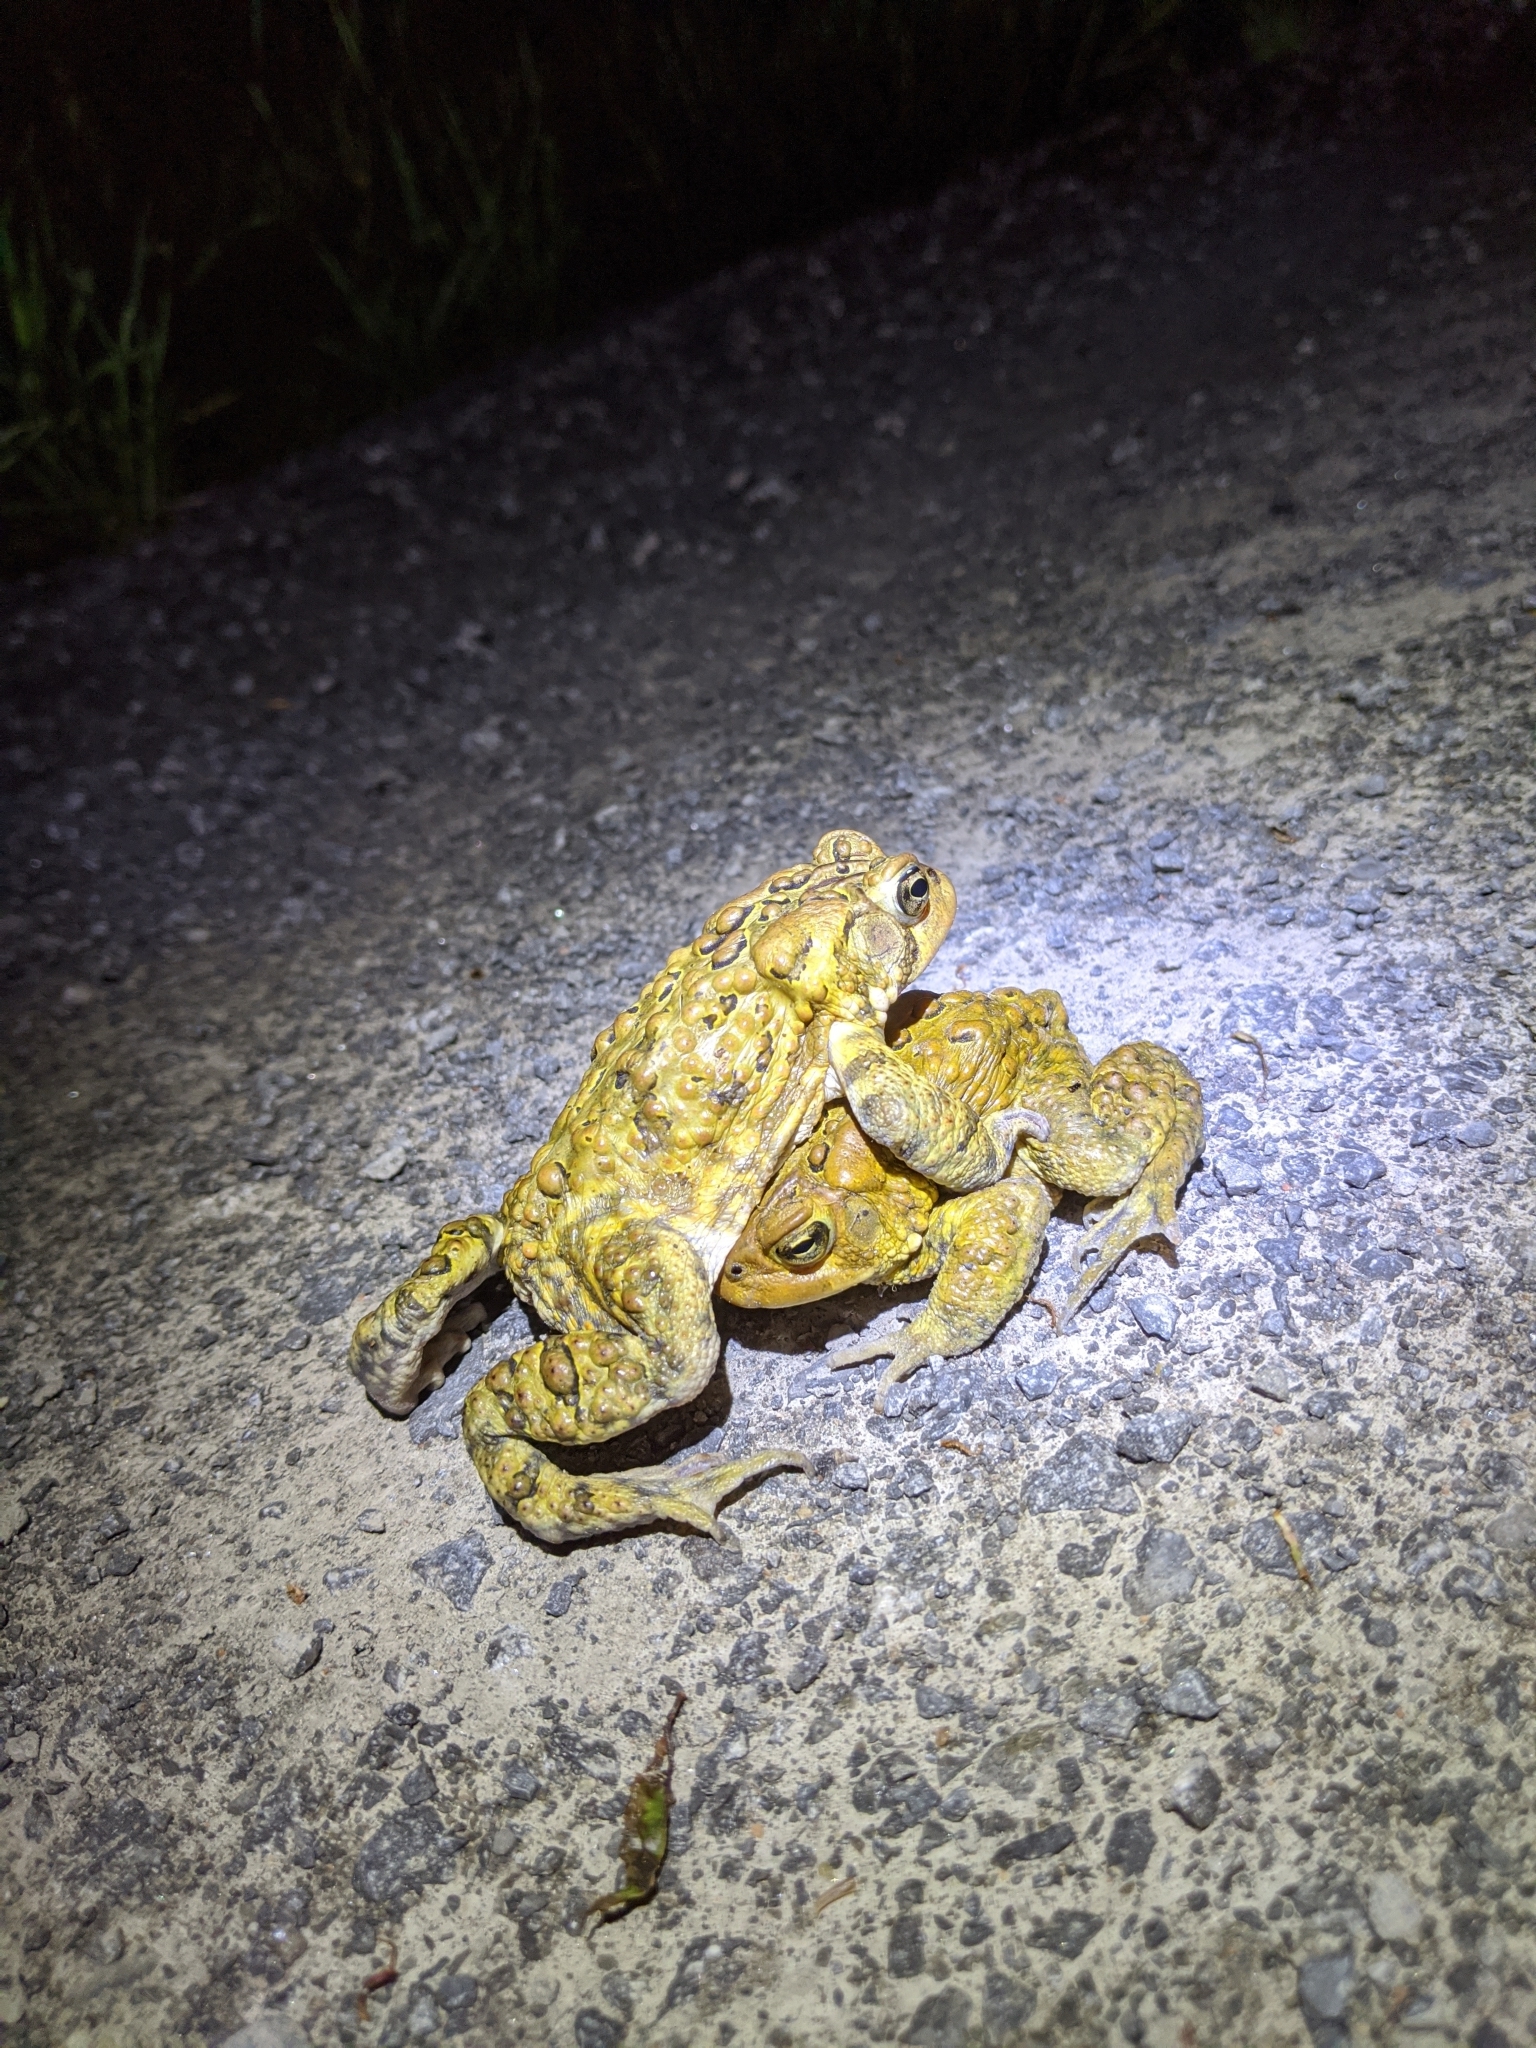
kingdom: Animalia
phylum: Chordata
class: Amphibia
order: Anura
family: Bufonidae
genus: Anaxyrus
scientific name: Anaxyrus americanus
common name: American toad
